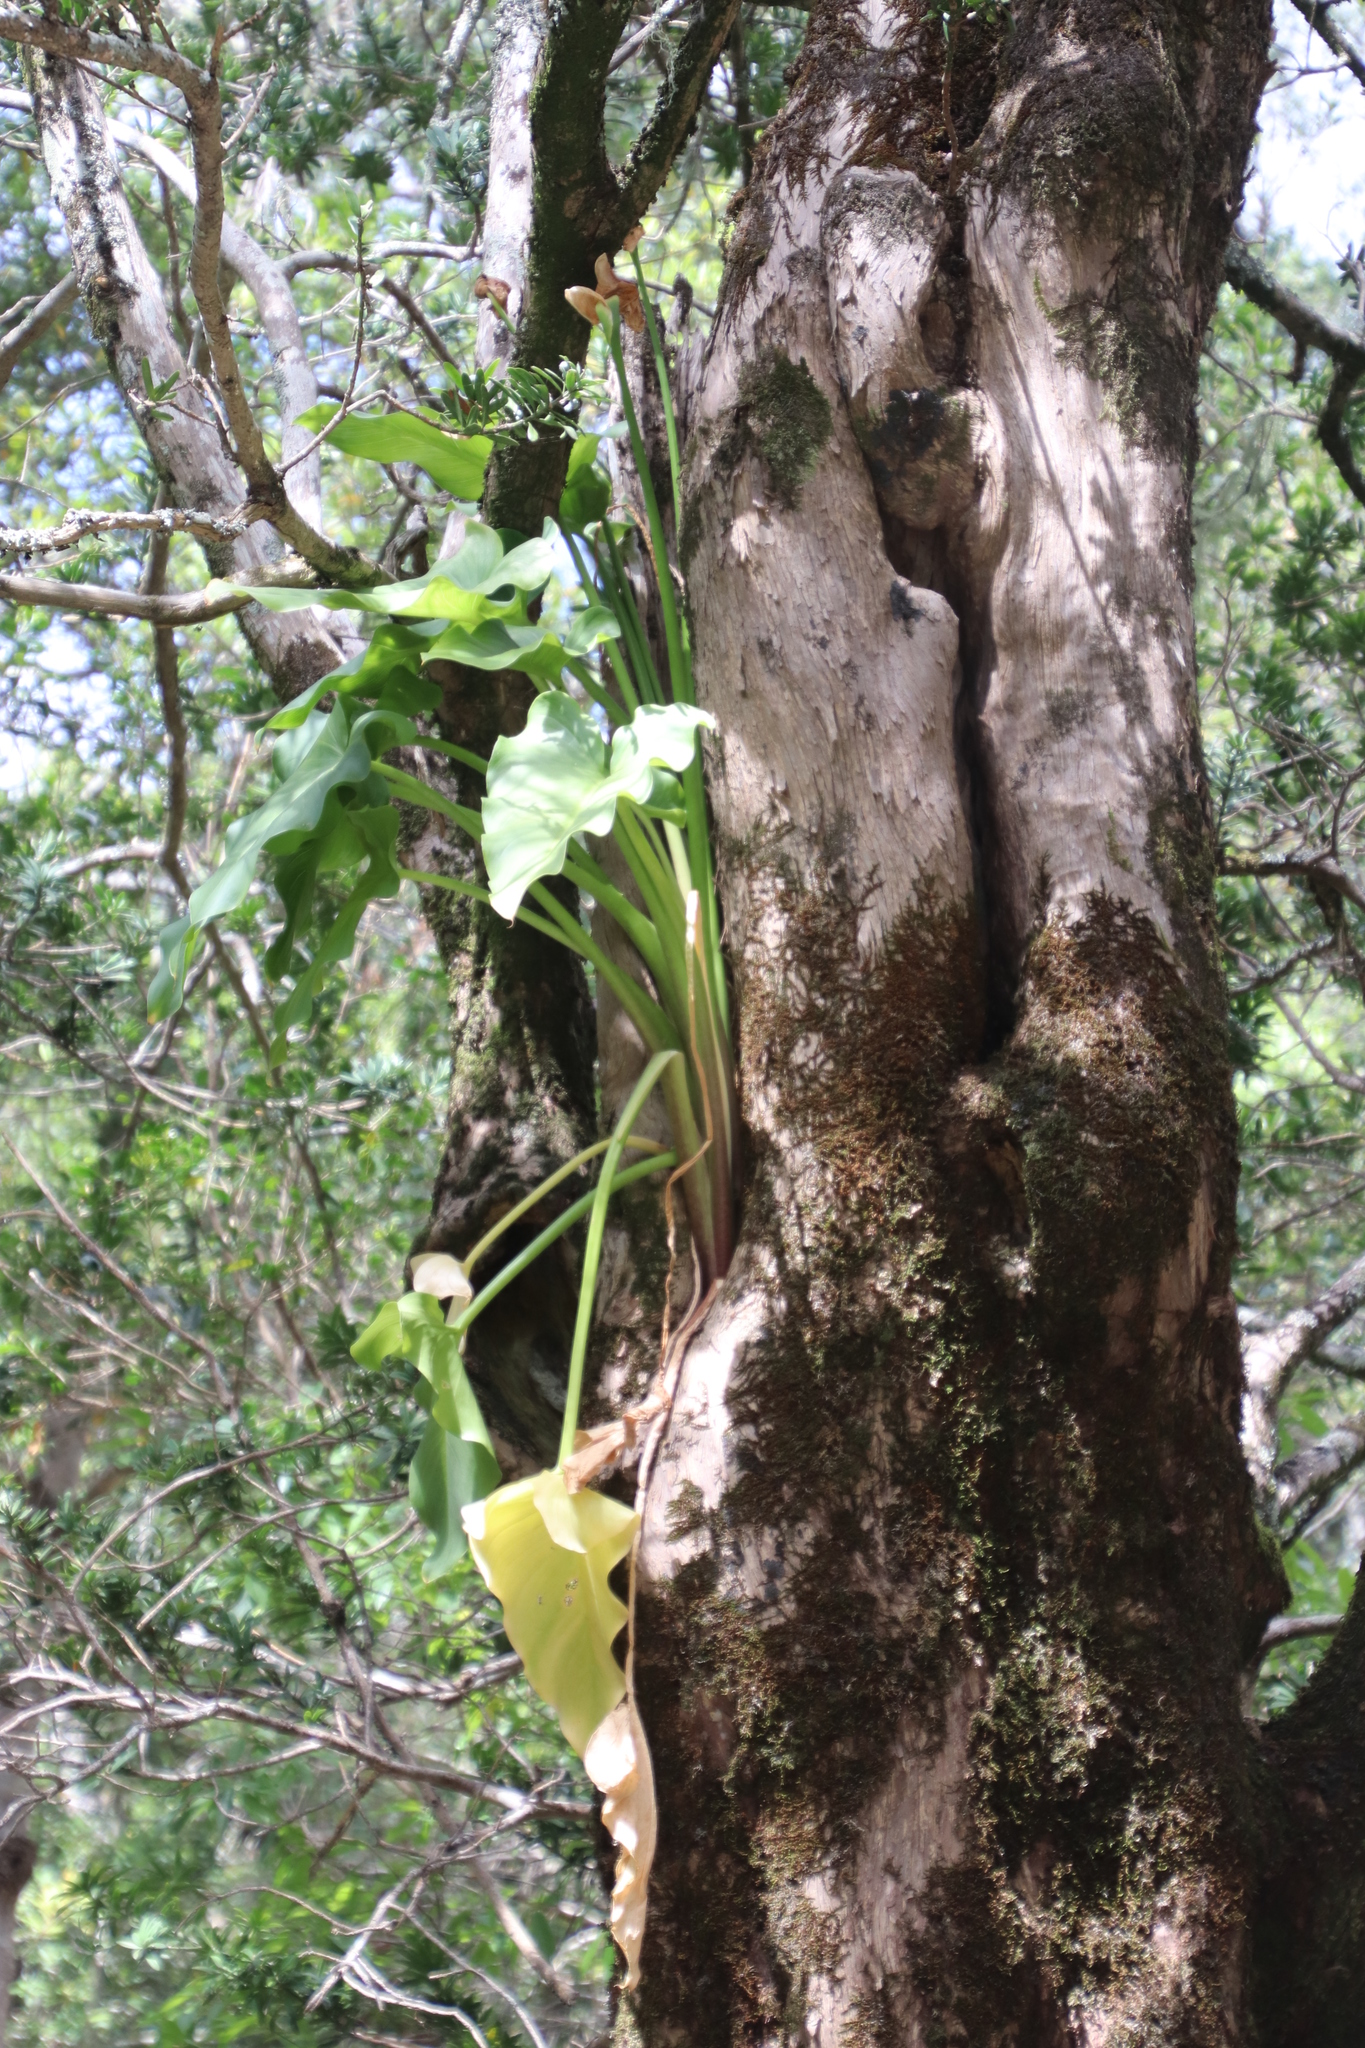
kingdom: Plantae
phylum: Tracheophyta
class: Liliopsida
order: Alismatales
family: Araceae
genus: Zantedeschia
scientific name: Zantedeschia aethiopica
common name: Altar-lily
